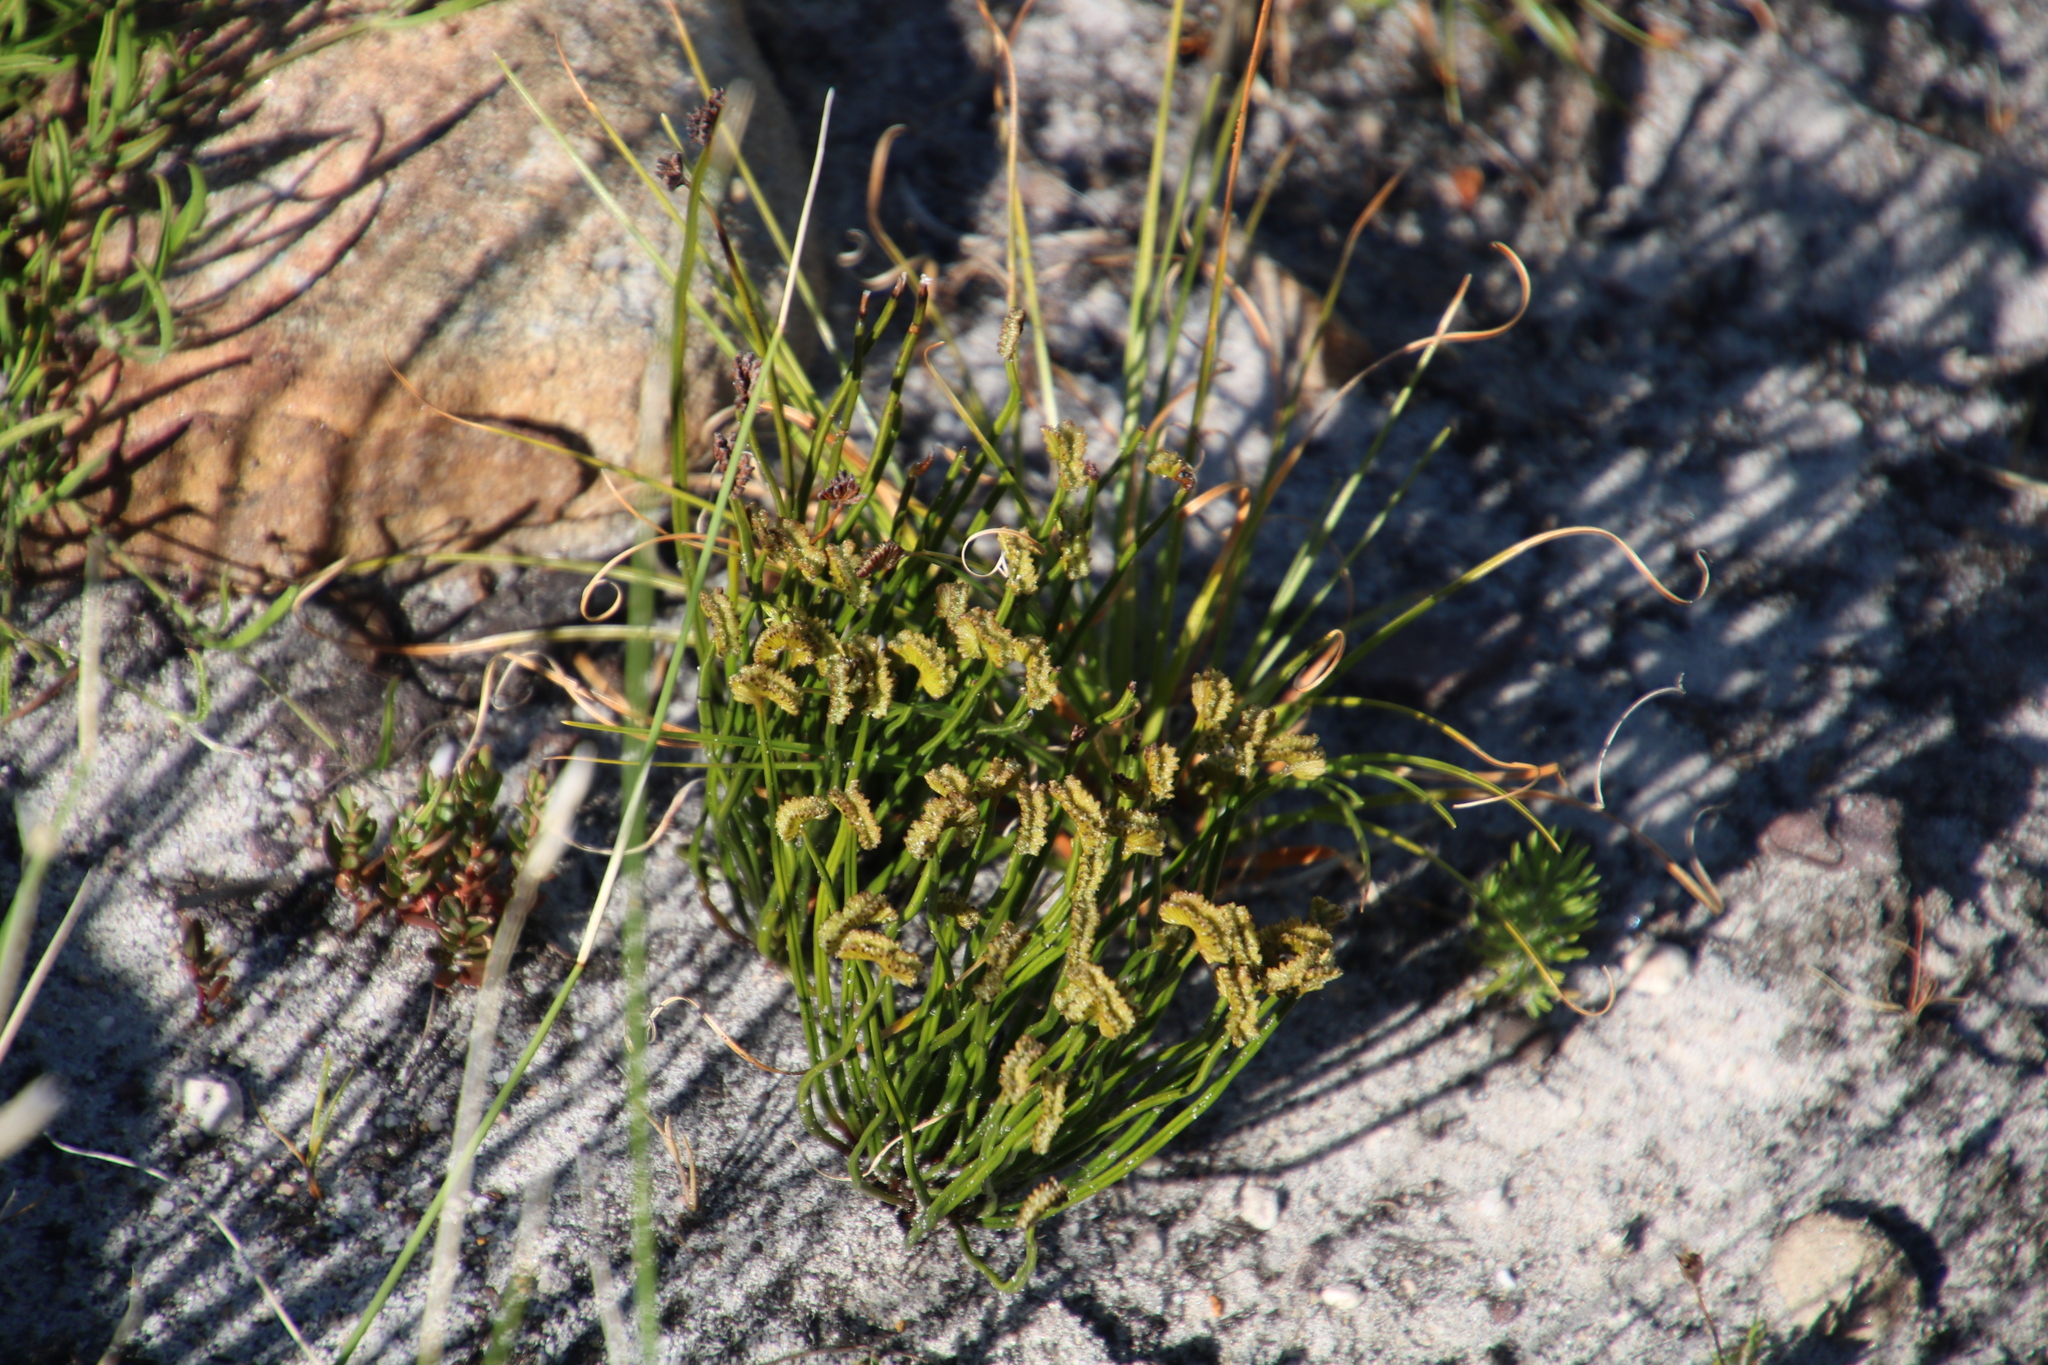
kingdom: Plantae
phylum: Tracheophyta
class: Polypodiopsida
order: Schizaeales
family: Schizaeaceae
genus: Schizaea
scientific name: Schizaea pectinata
